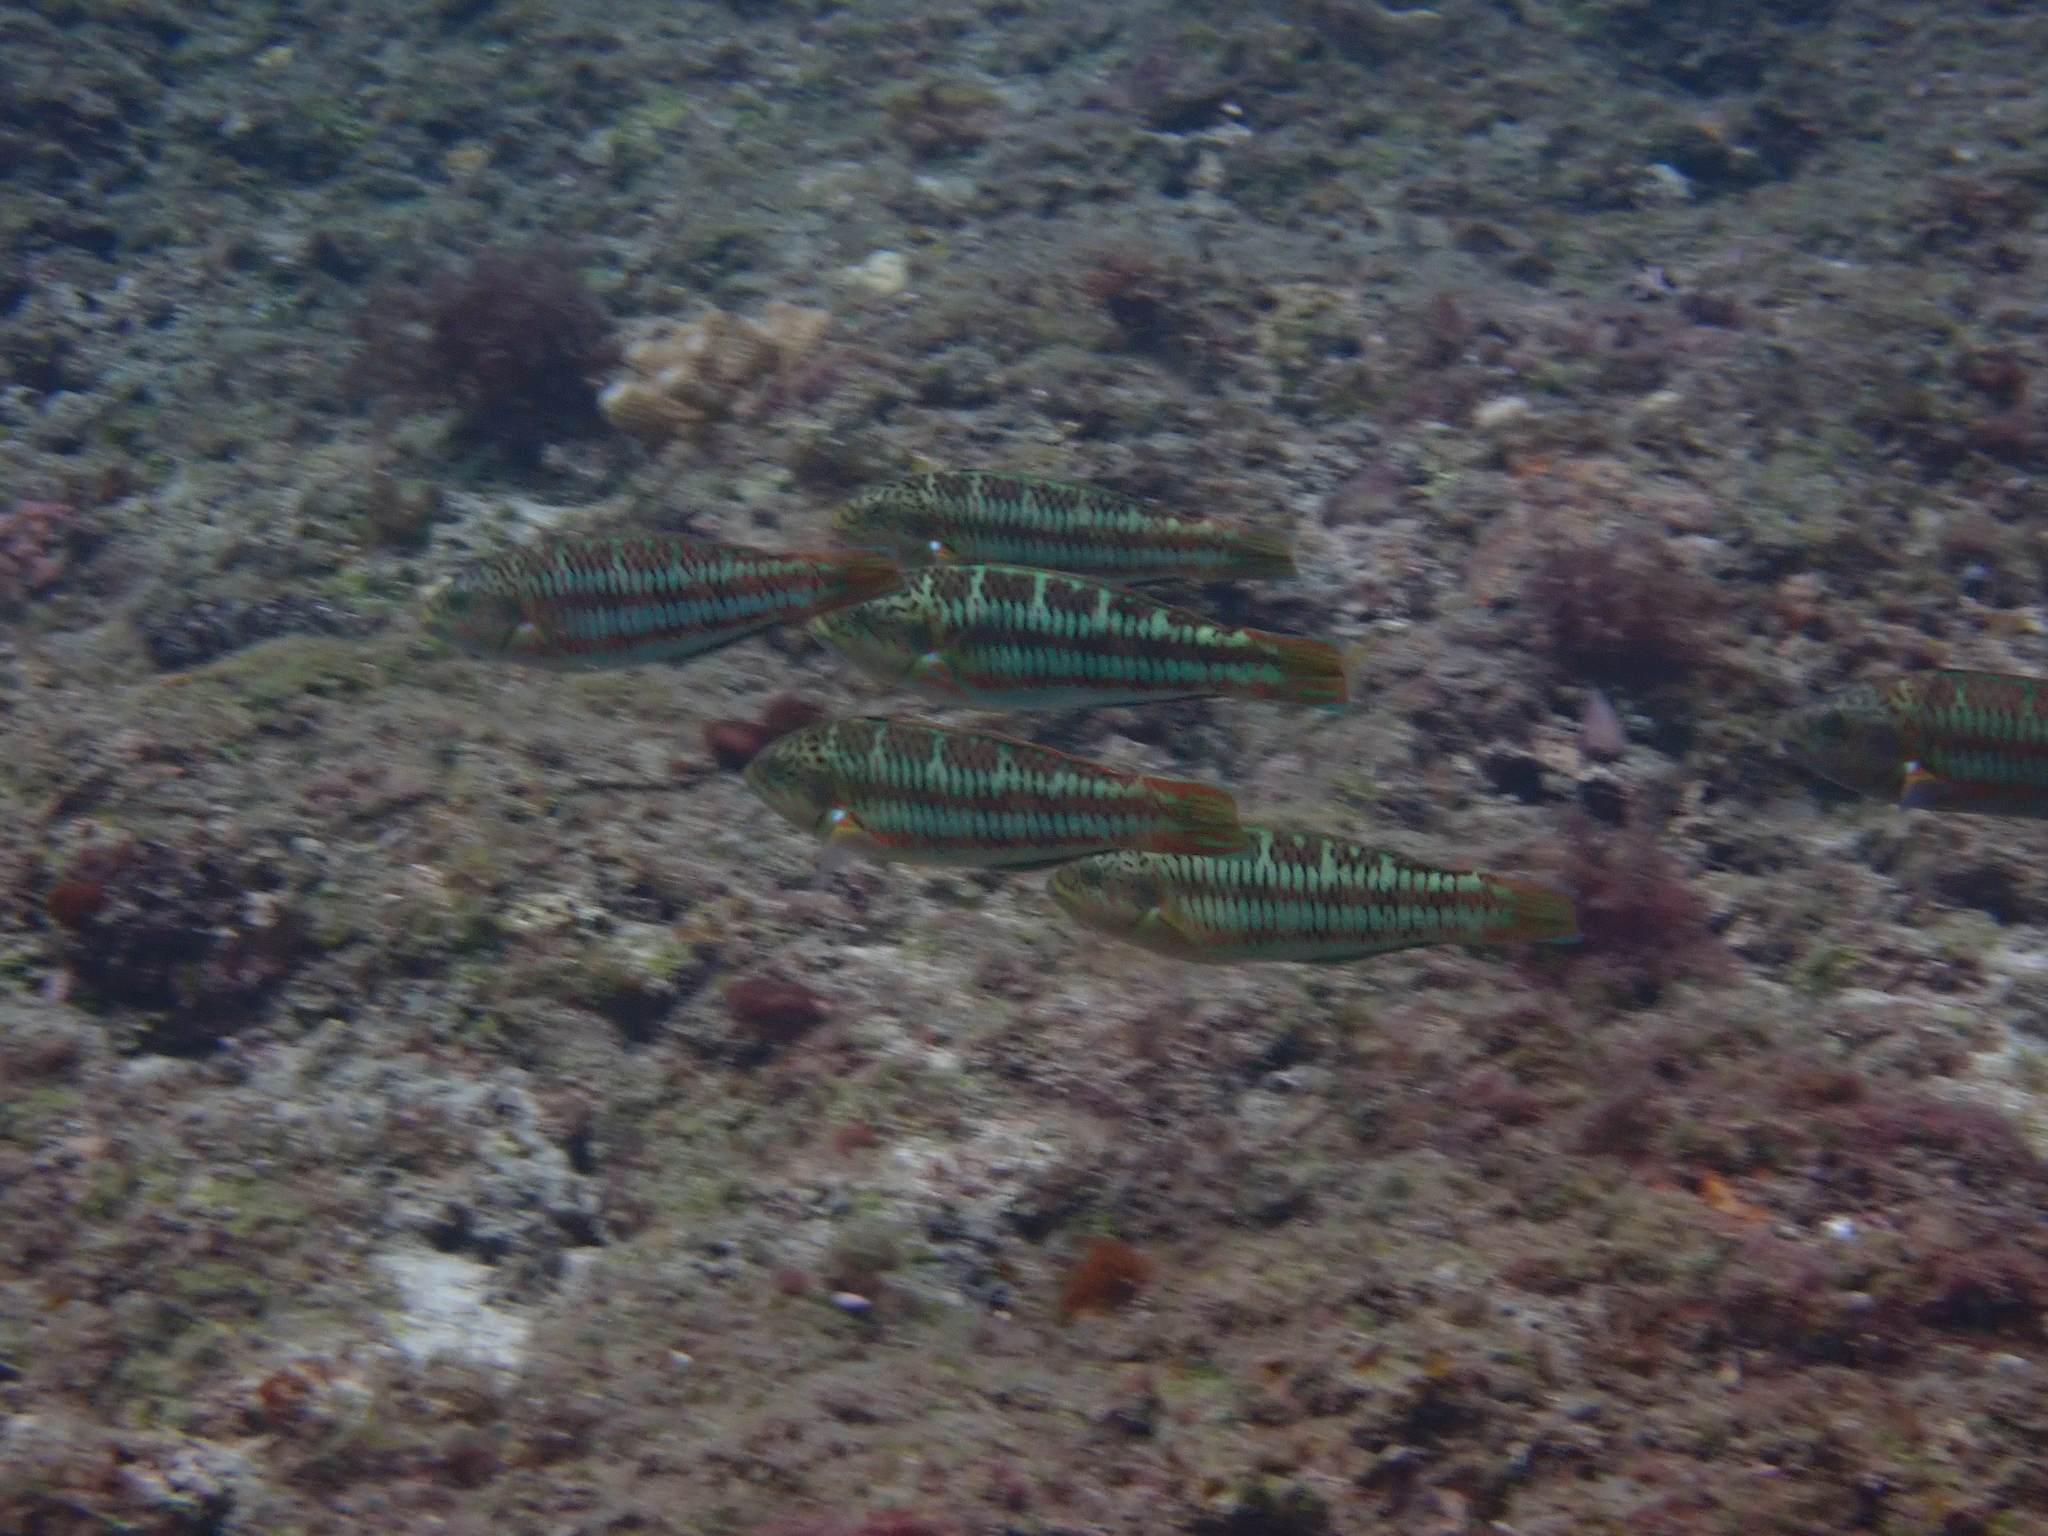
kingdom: Animalia
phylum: Chordata
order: Perciformes
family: Labridae
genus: Thalassoma
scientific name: Thalassoma trilobatum
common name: Christmas wrasse
